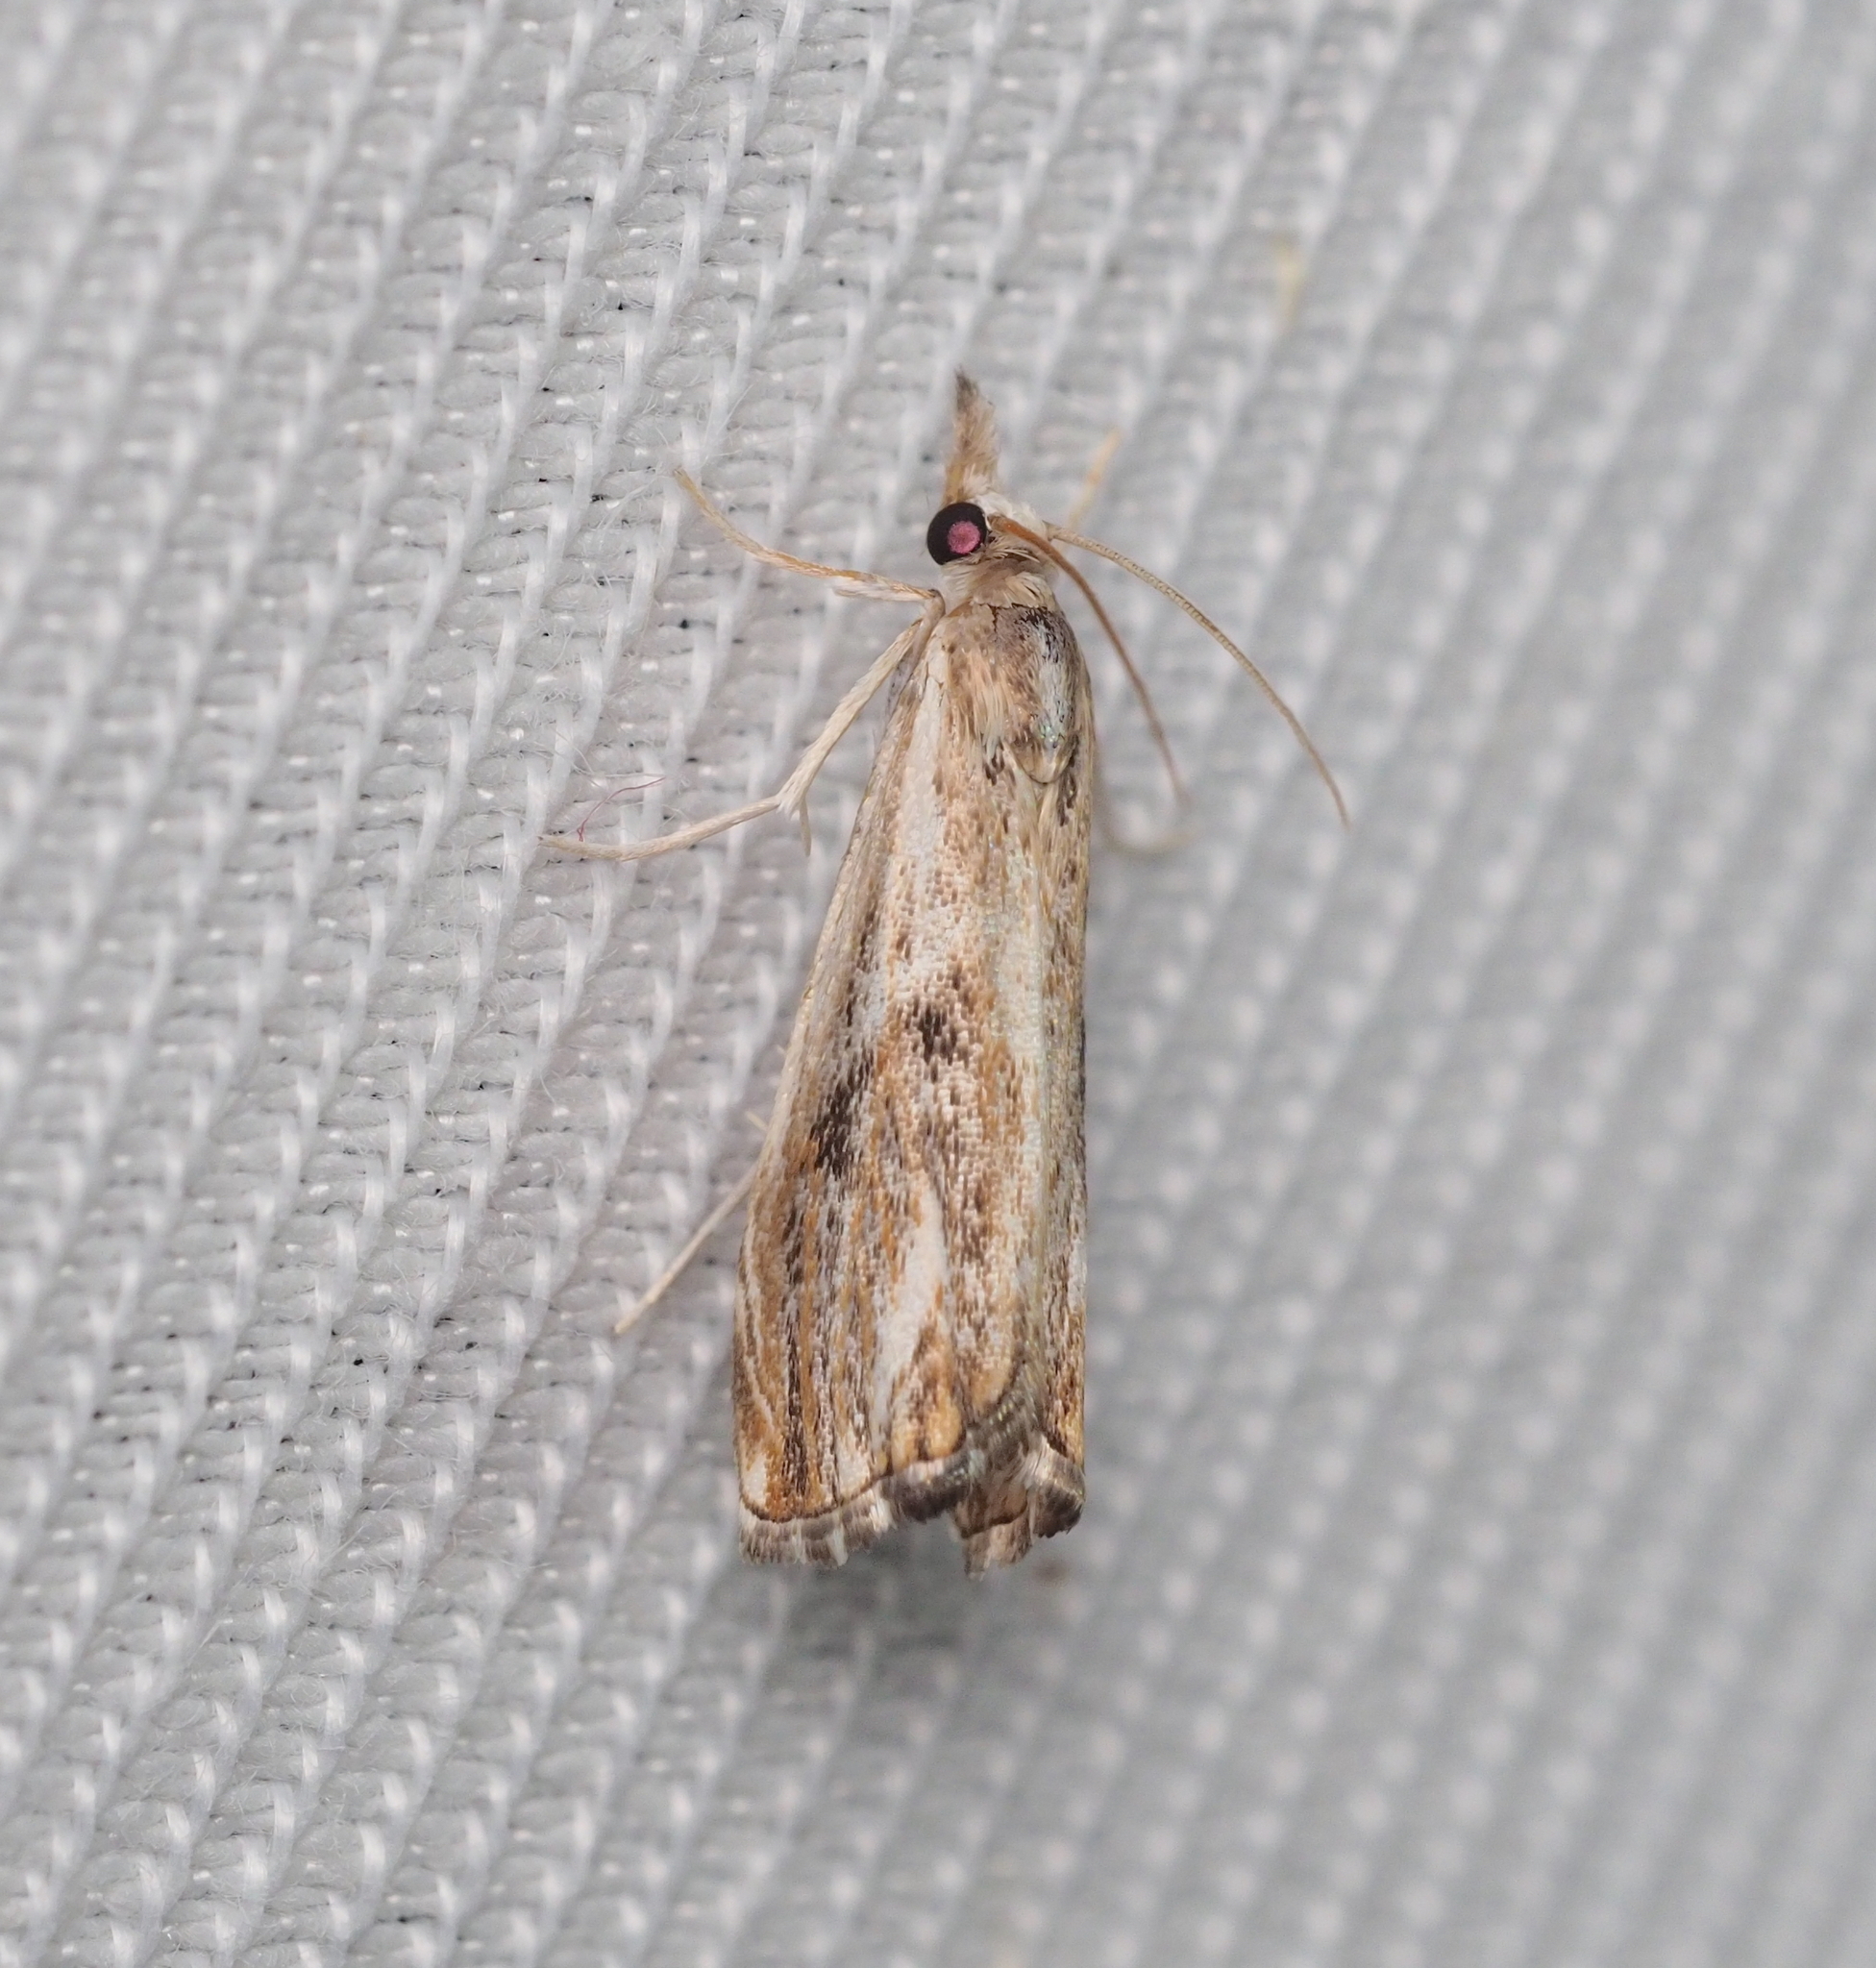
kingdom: Animalia
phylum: Arthropoda
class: Insecta
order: Lepidoptera
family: Crambidae
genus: Catoptria
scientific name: Catoptria verellus
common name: Marbled grass-veneer
